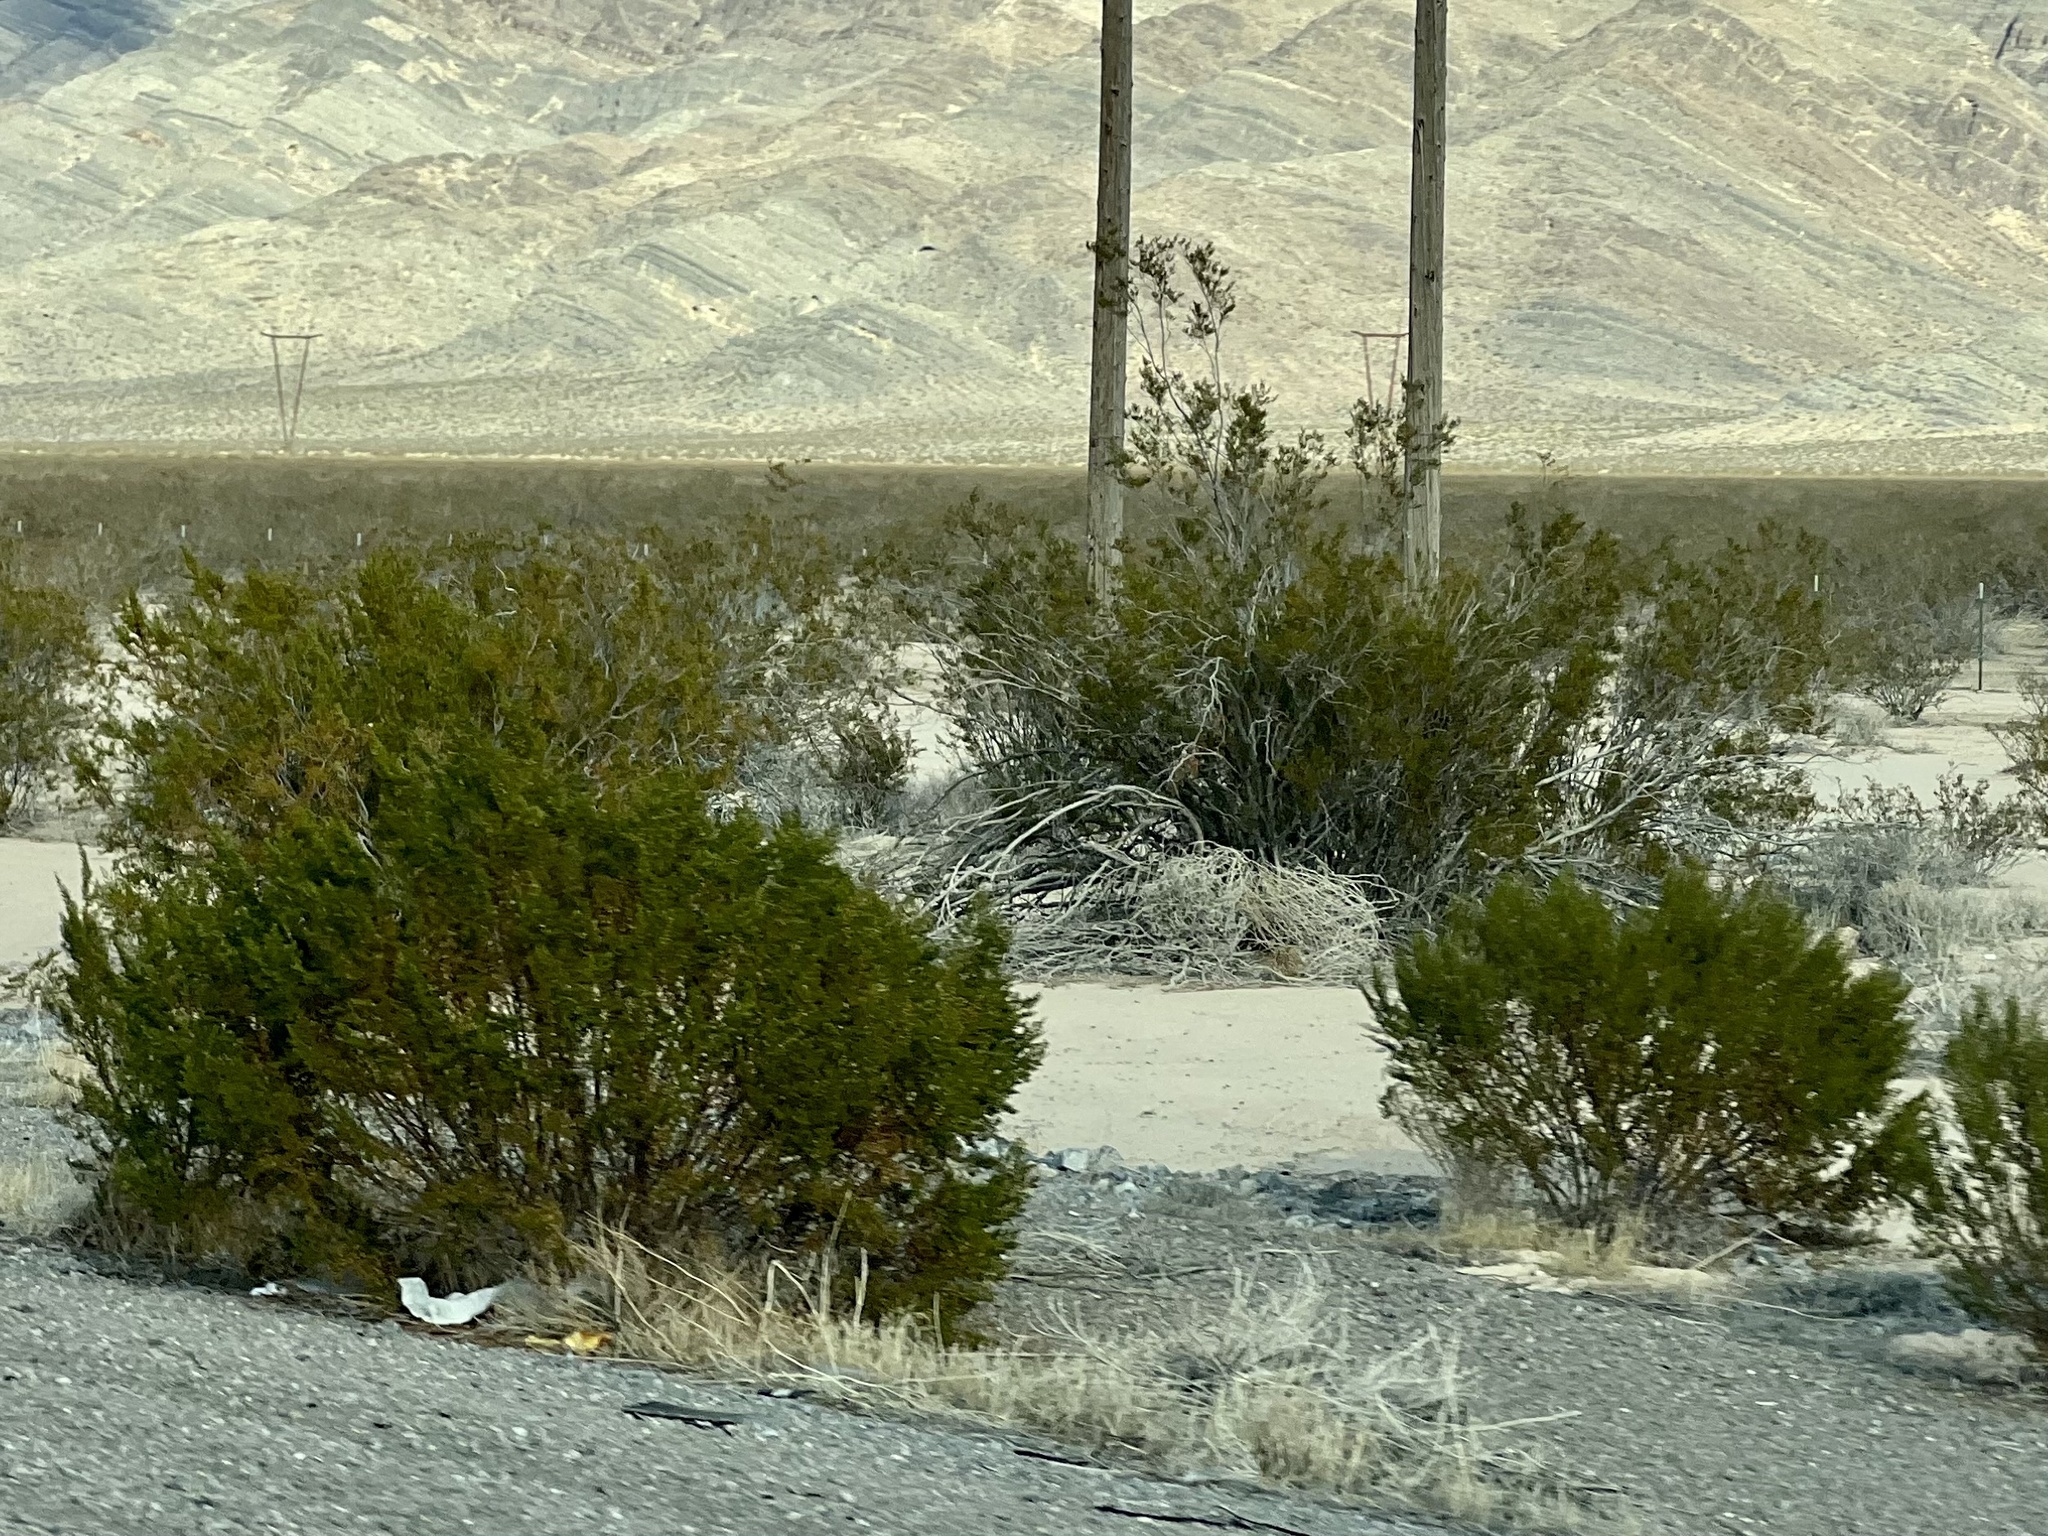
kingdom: Plantae
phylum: Tracheophyta
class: Magnoliopsida
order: Zygophyllales
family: Zygophyllaceae
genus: Larrea
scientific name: Larrea tridentata
